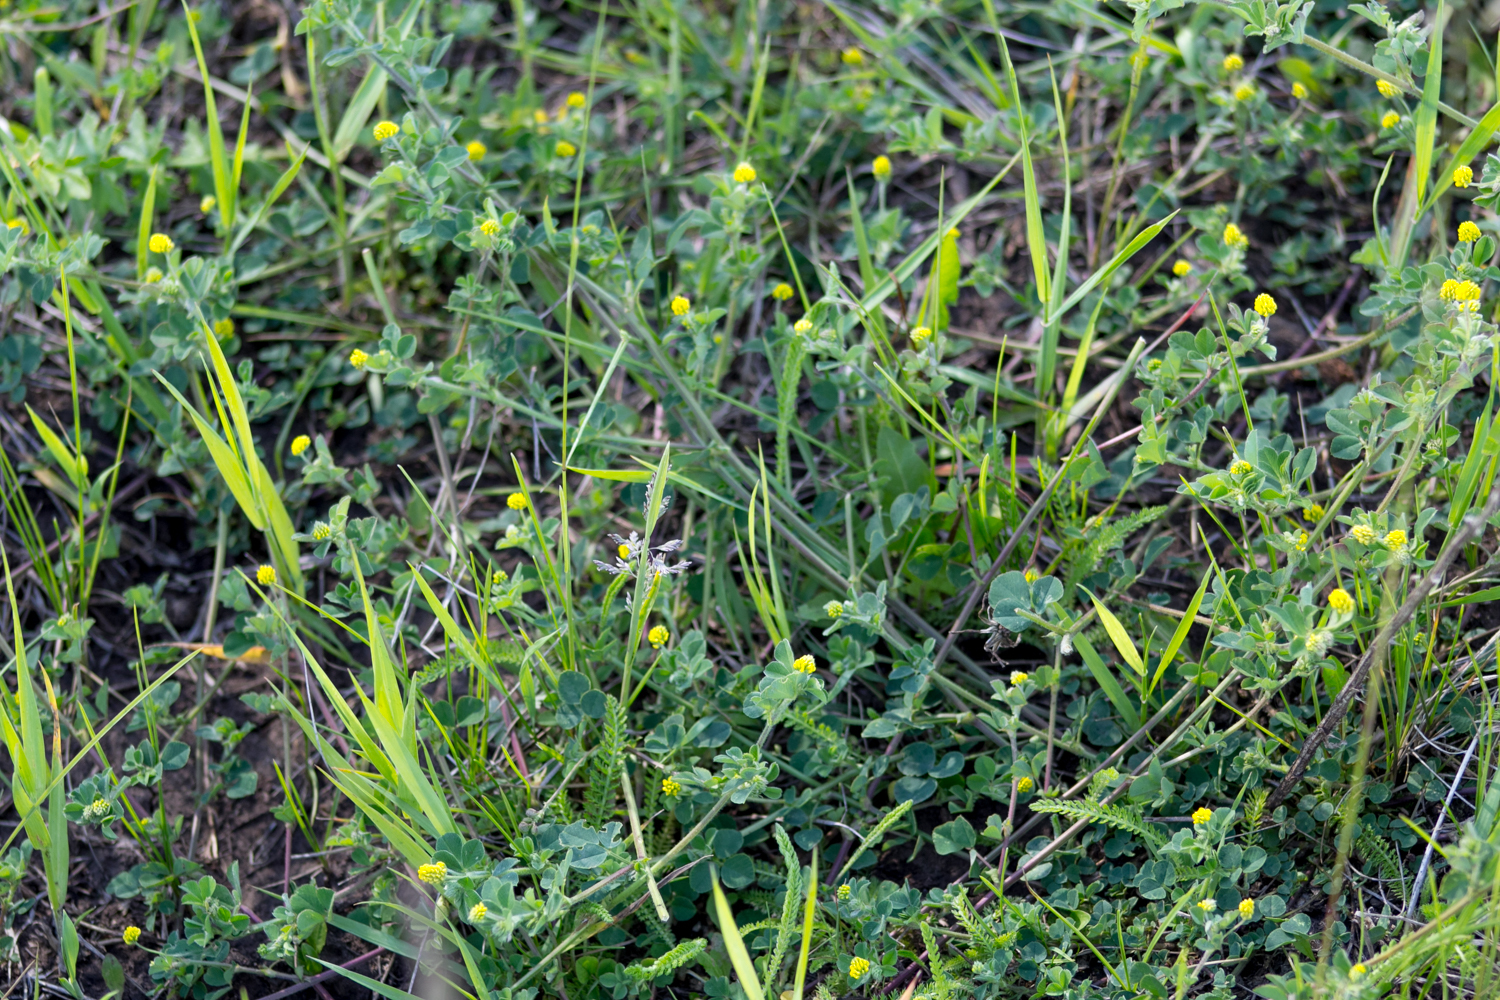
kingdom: Plantae
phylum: Tracheophyta
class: Magnoliopsida
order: Fabales
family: Fabaceae
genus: Medicago
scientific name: Medicago lupulina
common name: Black medick
